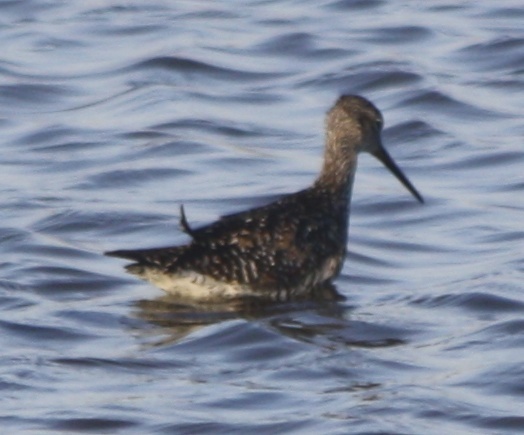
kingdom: Animalia
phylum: Chordata
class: Aves
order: Charadriiformes
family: Scolopacidae
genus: Tringa
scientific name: Tringa melanoleuca
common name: Greater yellowlegs
